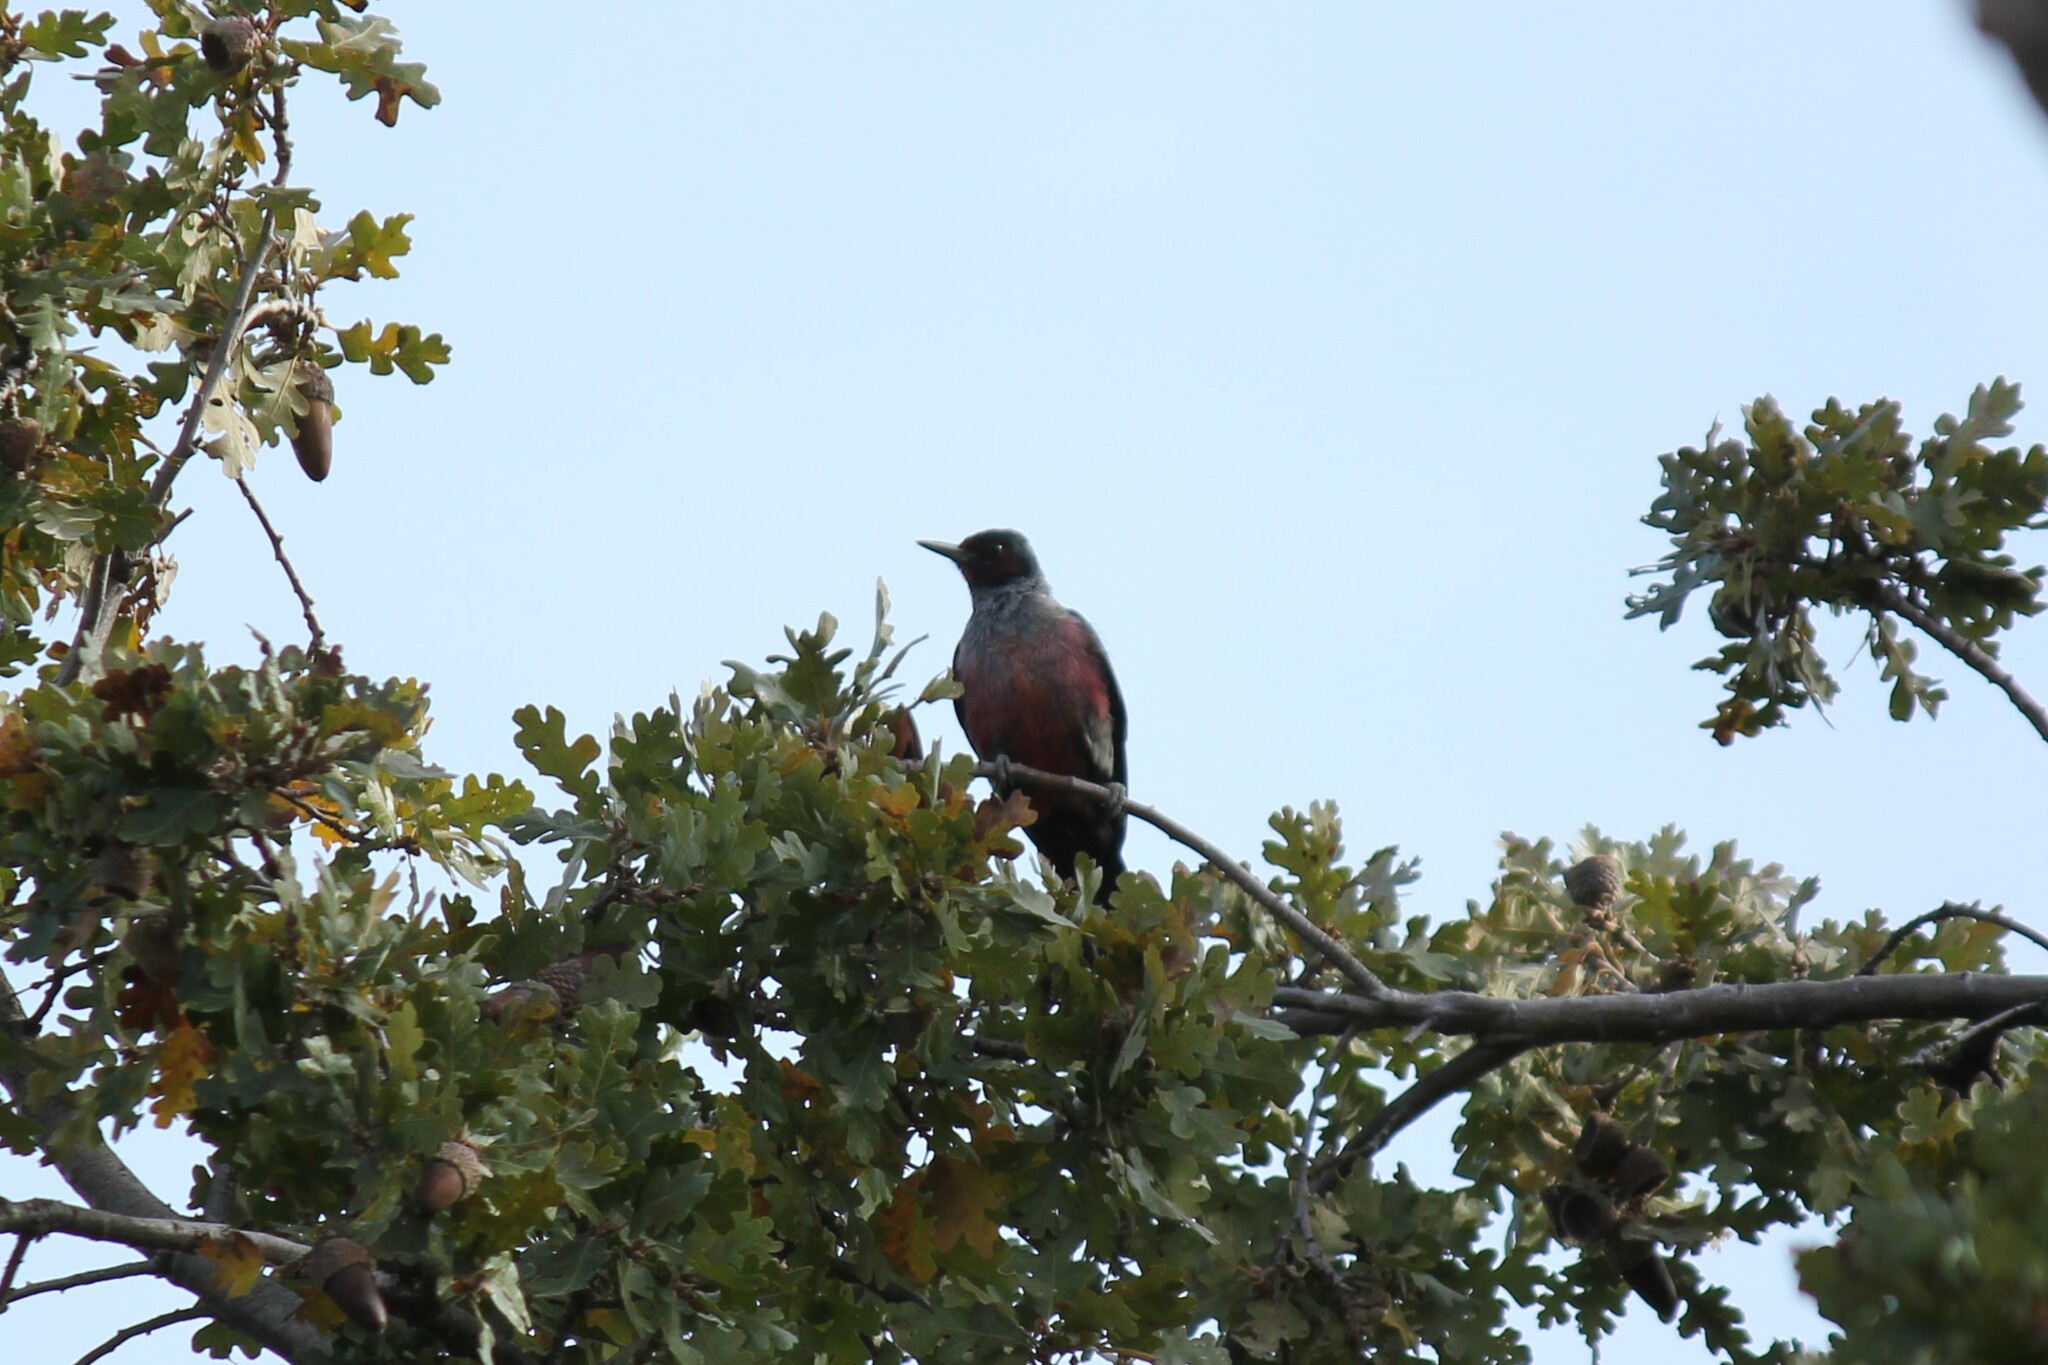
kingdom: Animalia
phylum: Chordata
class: Aves
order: Piciformes
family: Picidae
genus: Melanerpes
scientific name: Melanerpes lewis
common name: Lewis's woodpecker
